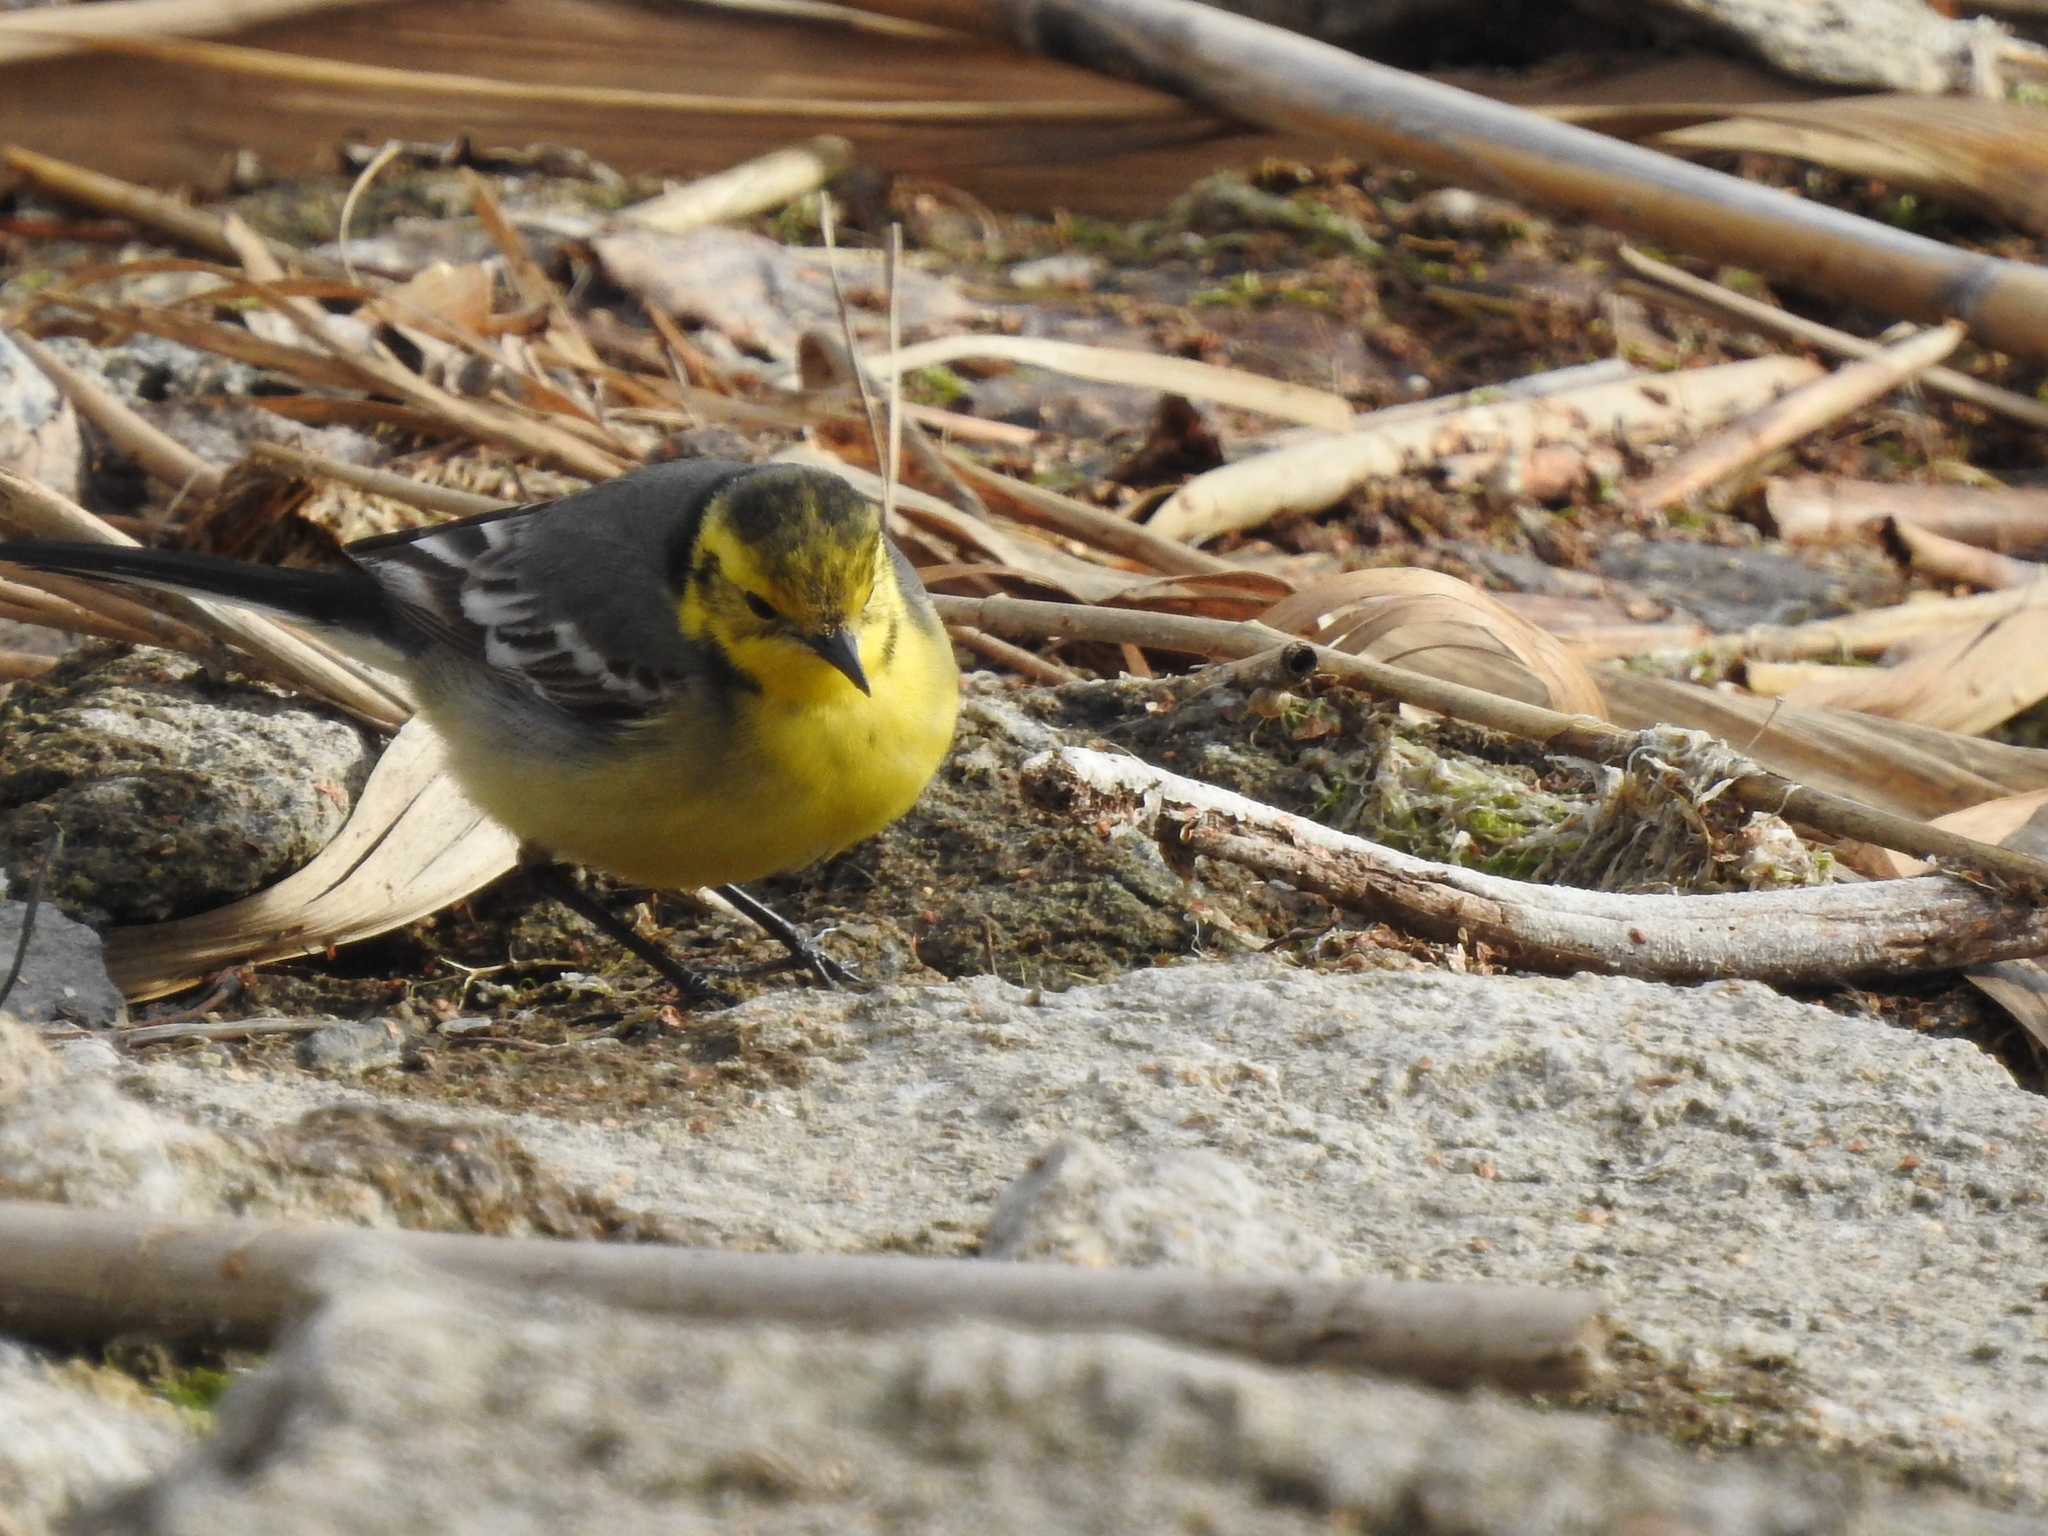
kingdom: Animalia
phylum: Chordata
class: Aves
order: Passeriformes
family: Motacillidae
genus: Motacilla
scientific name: Motacilla citreola
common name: Citrine wagtail
